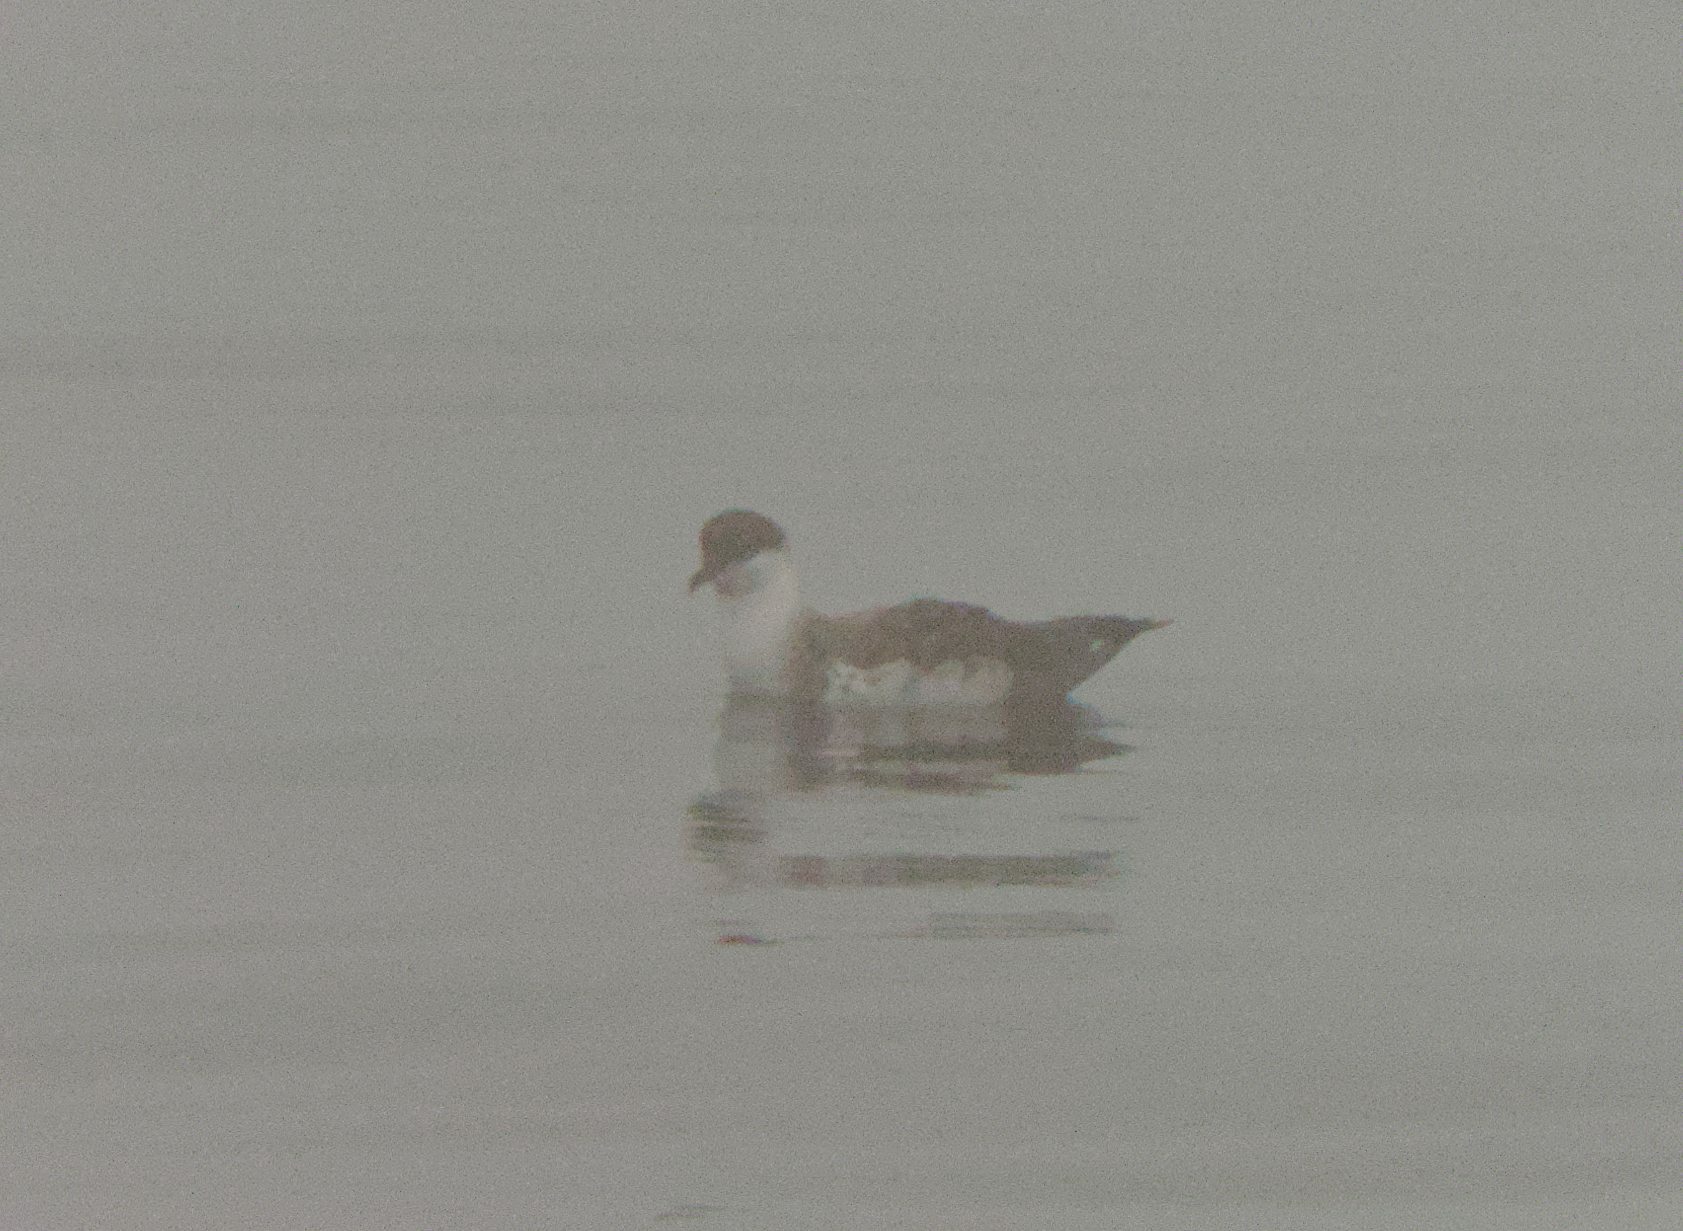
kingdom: Animalia
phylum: Chordata
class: Aves
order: Procellariiformes
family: Procellariidae
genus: Puffinus
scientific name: Puffinus gravis
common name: Great shearwater
